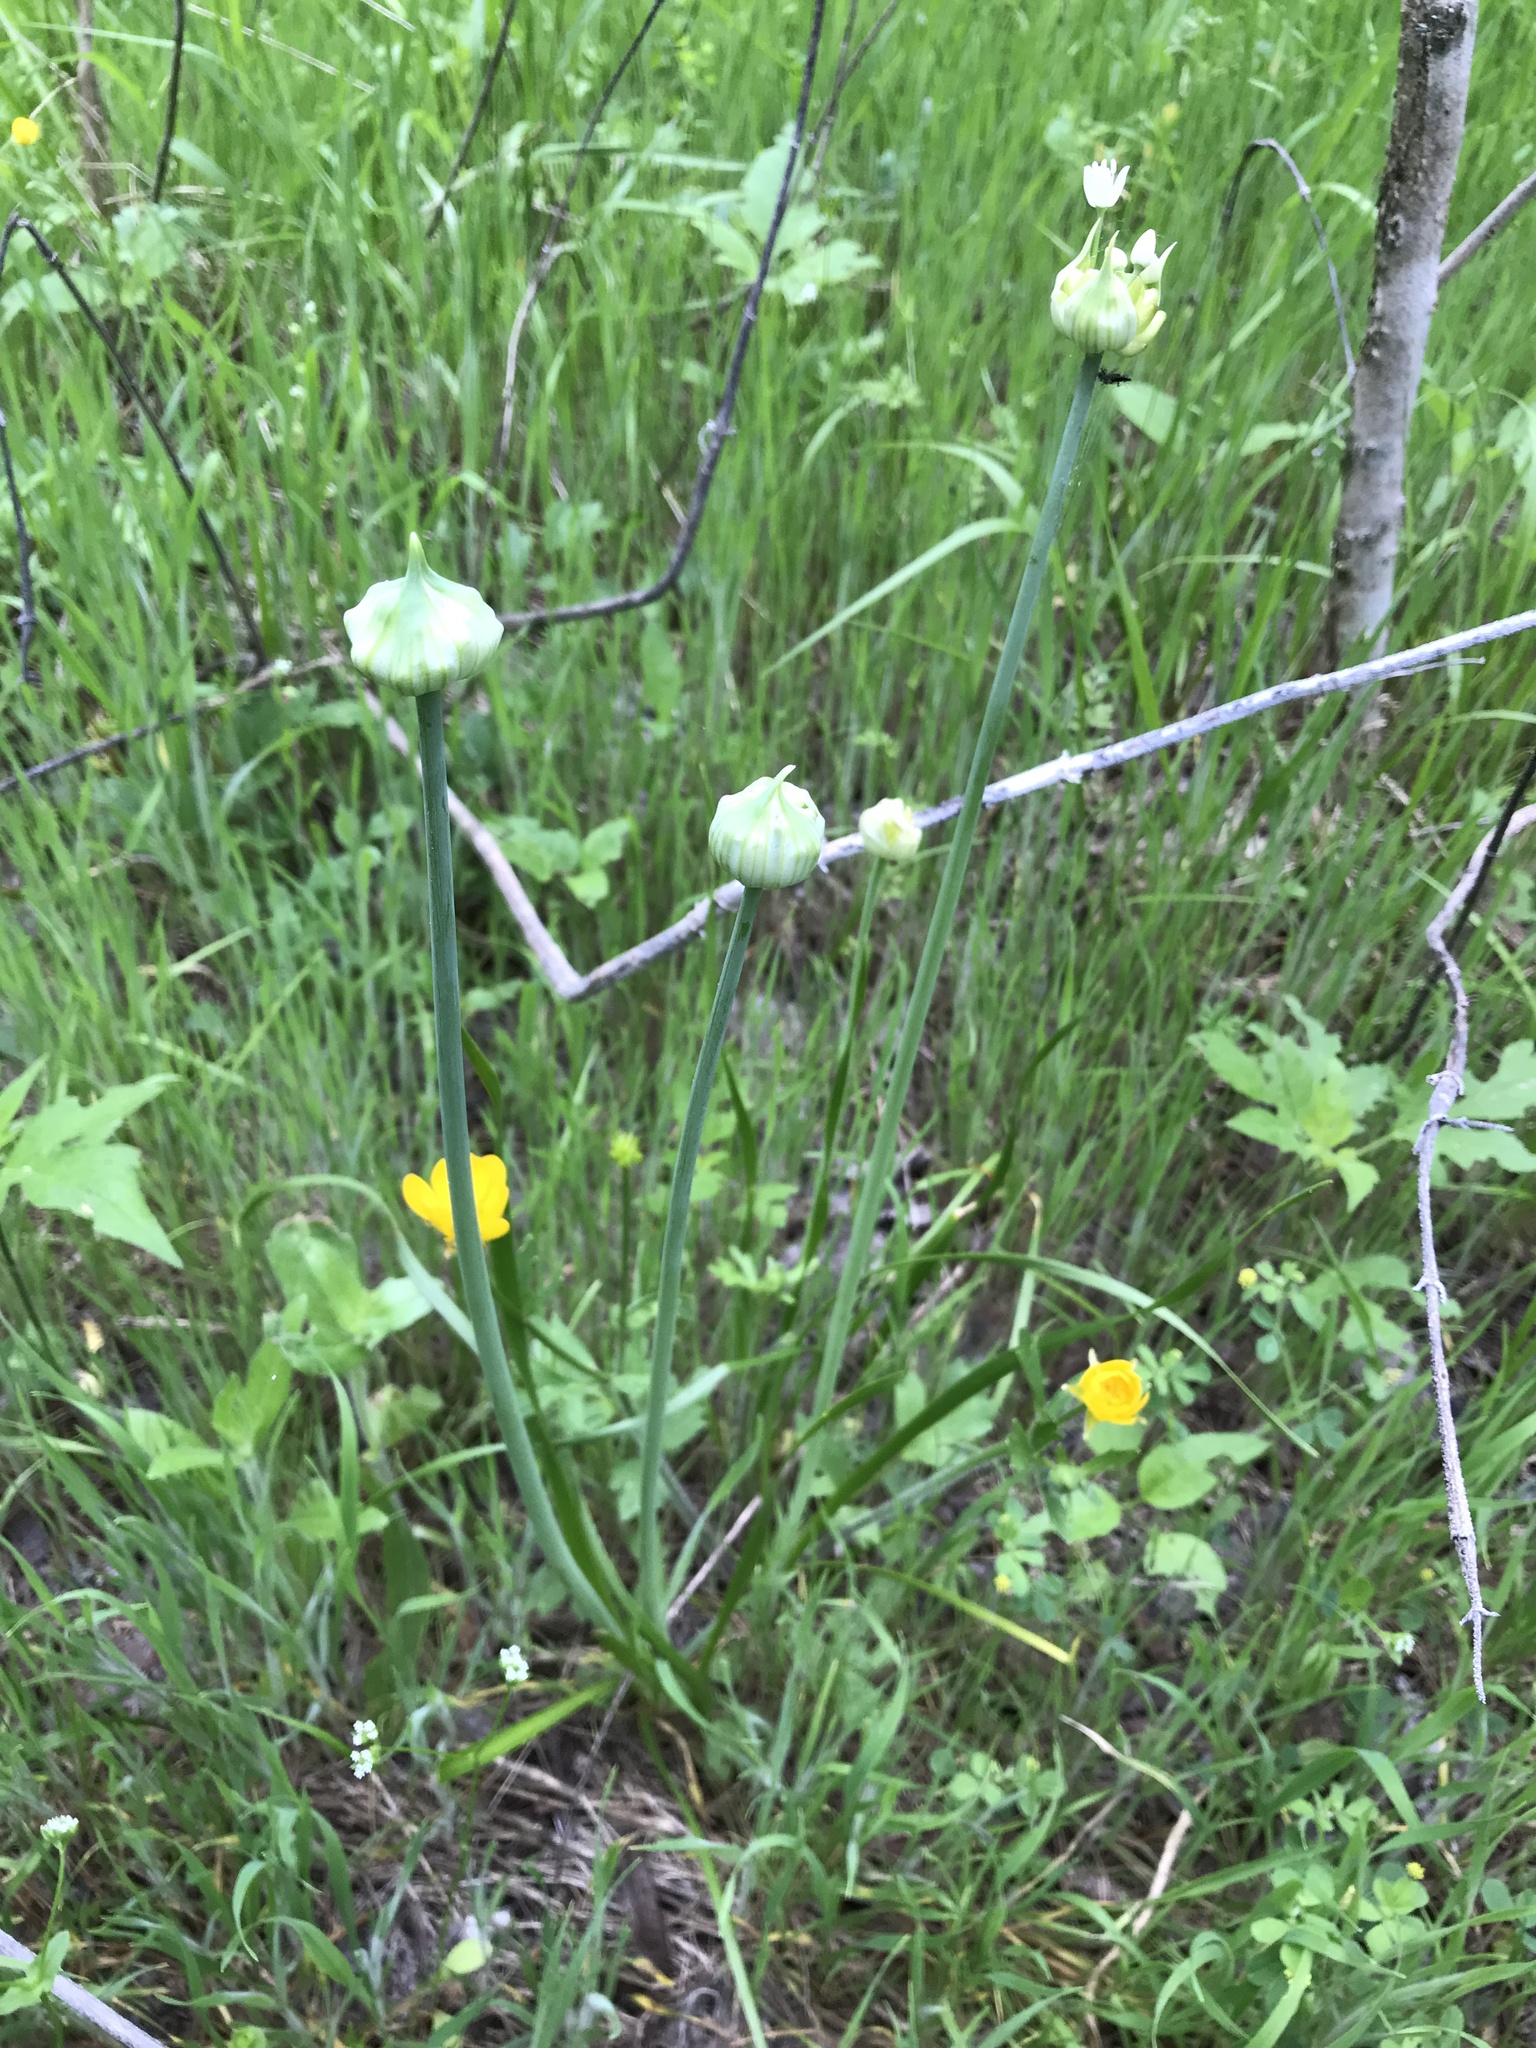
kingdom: Plantae
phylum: Tracheophyta
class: Liliopsida
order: Asparagales
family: Amaryllidaceae
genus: Allium
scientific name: Allium canadense
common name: Meadow garlic
